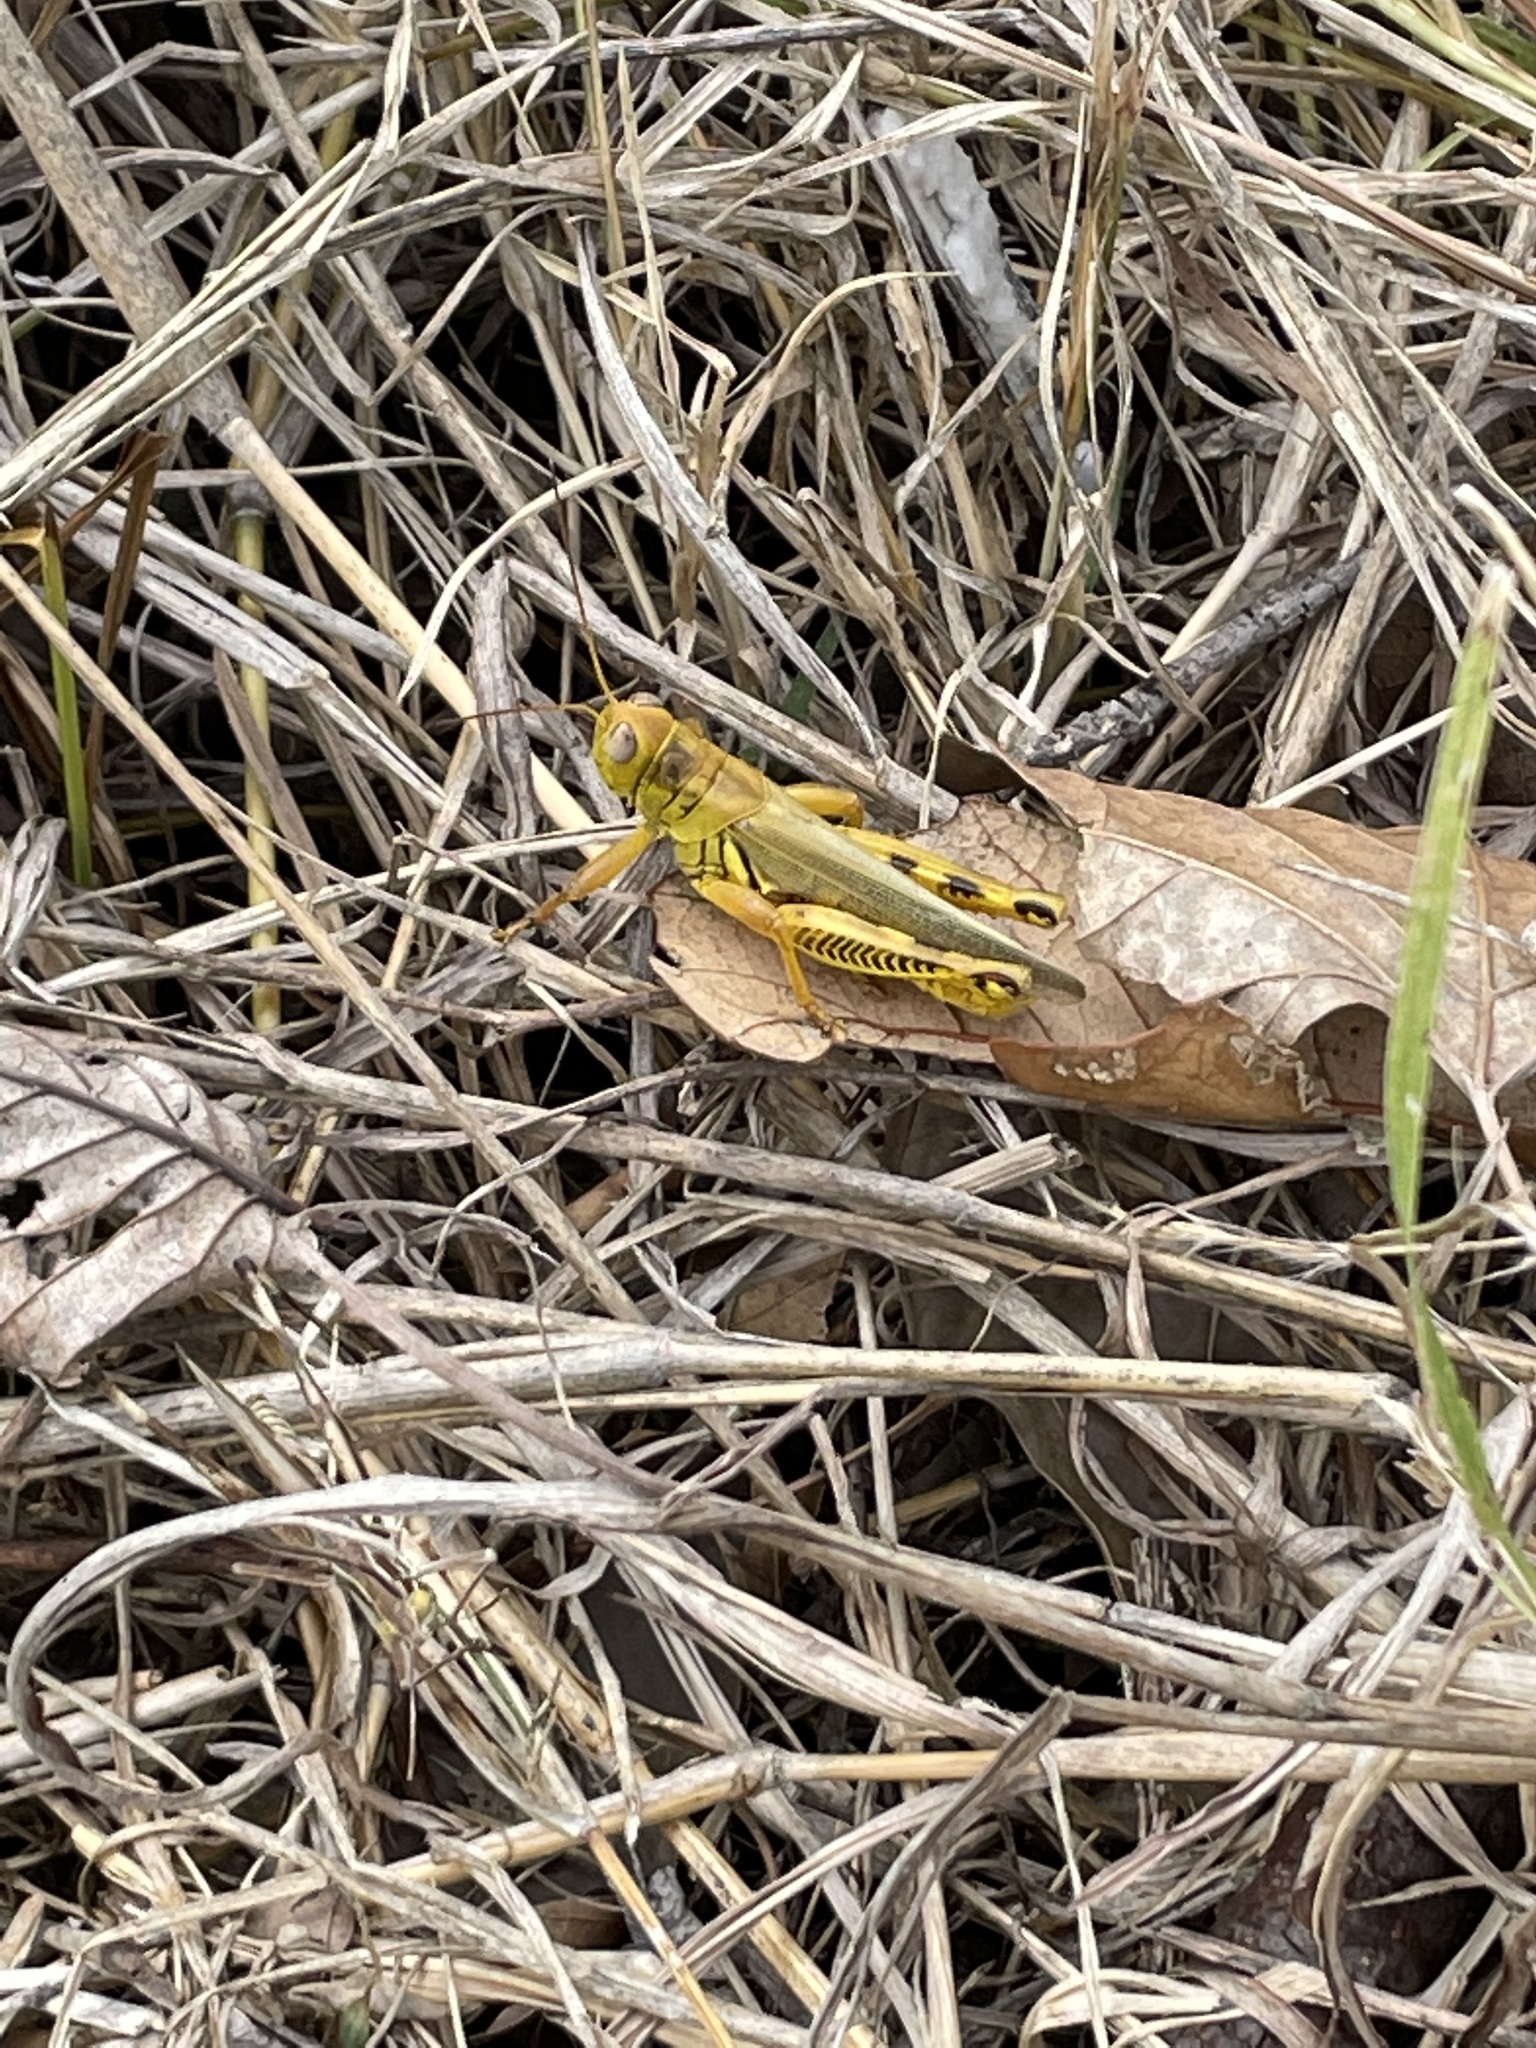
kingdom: Animalia
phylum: Arthropoda
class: Insecta
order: Orthoptera
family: Acrididae
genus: Melanoplus
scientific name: Melanoplus differentialis
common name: Differential grasshopper
